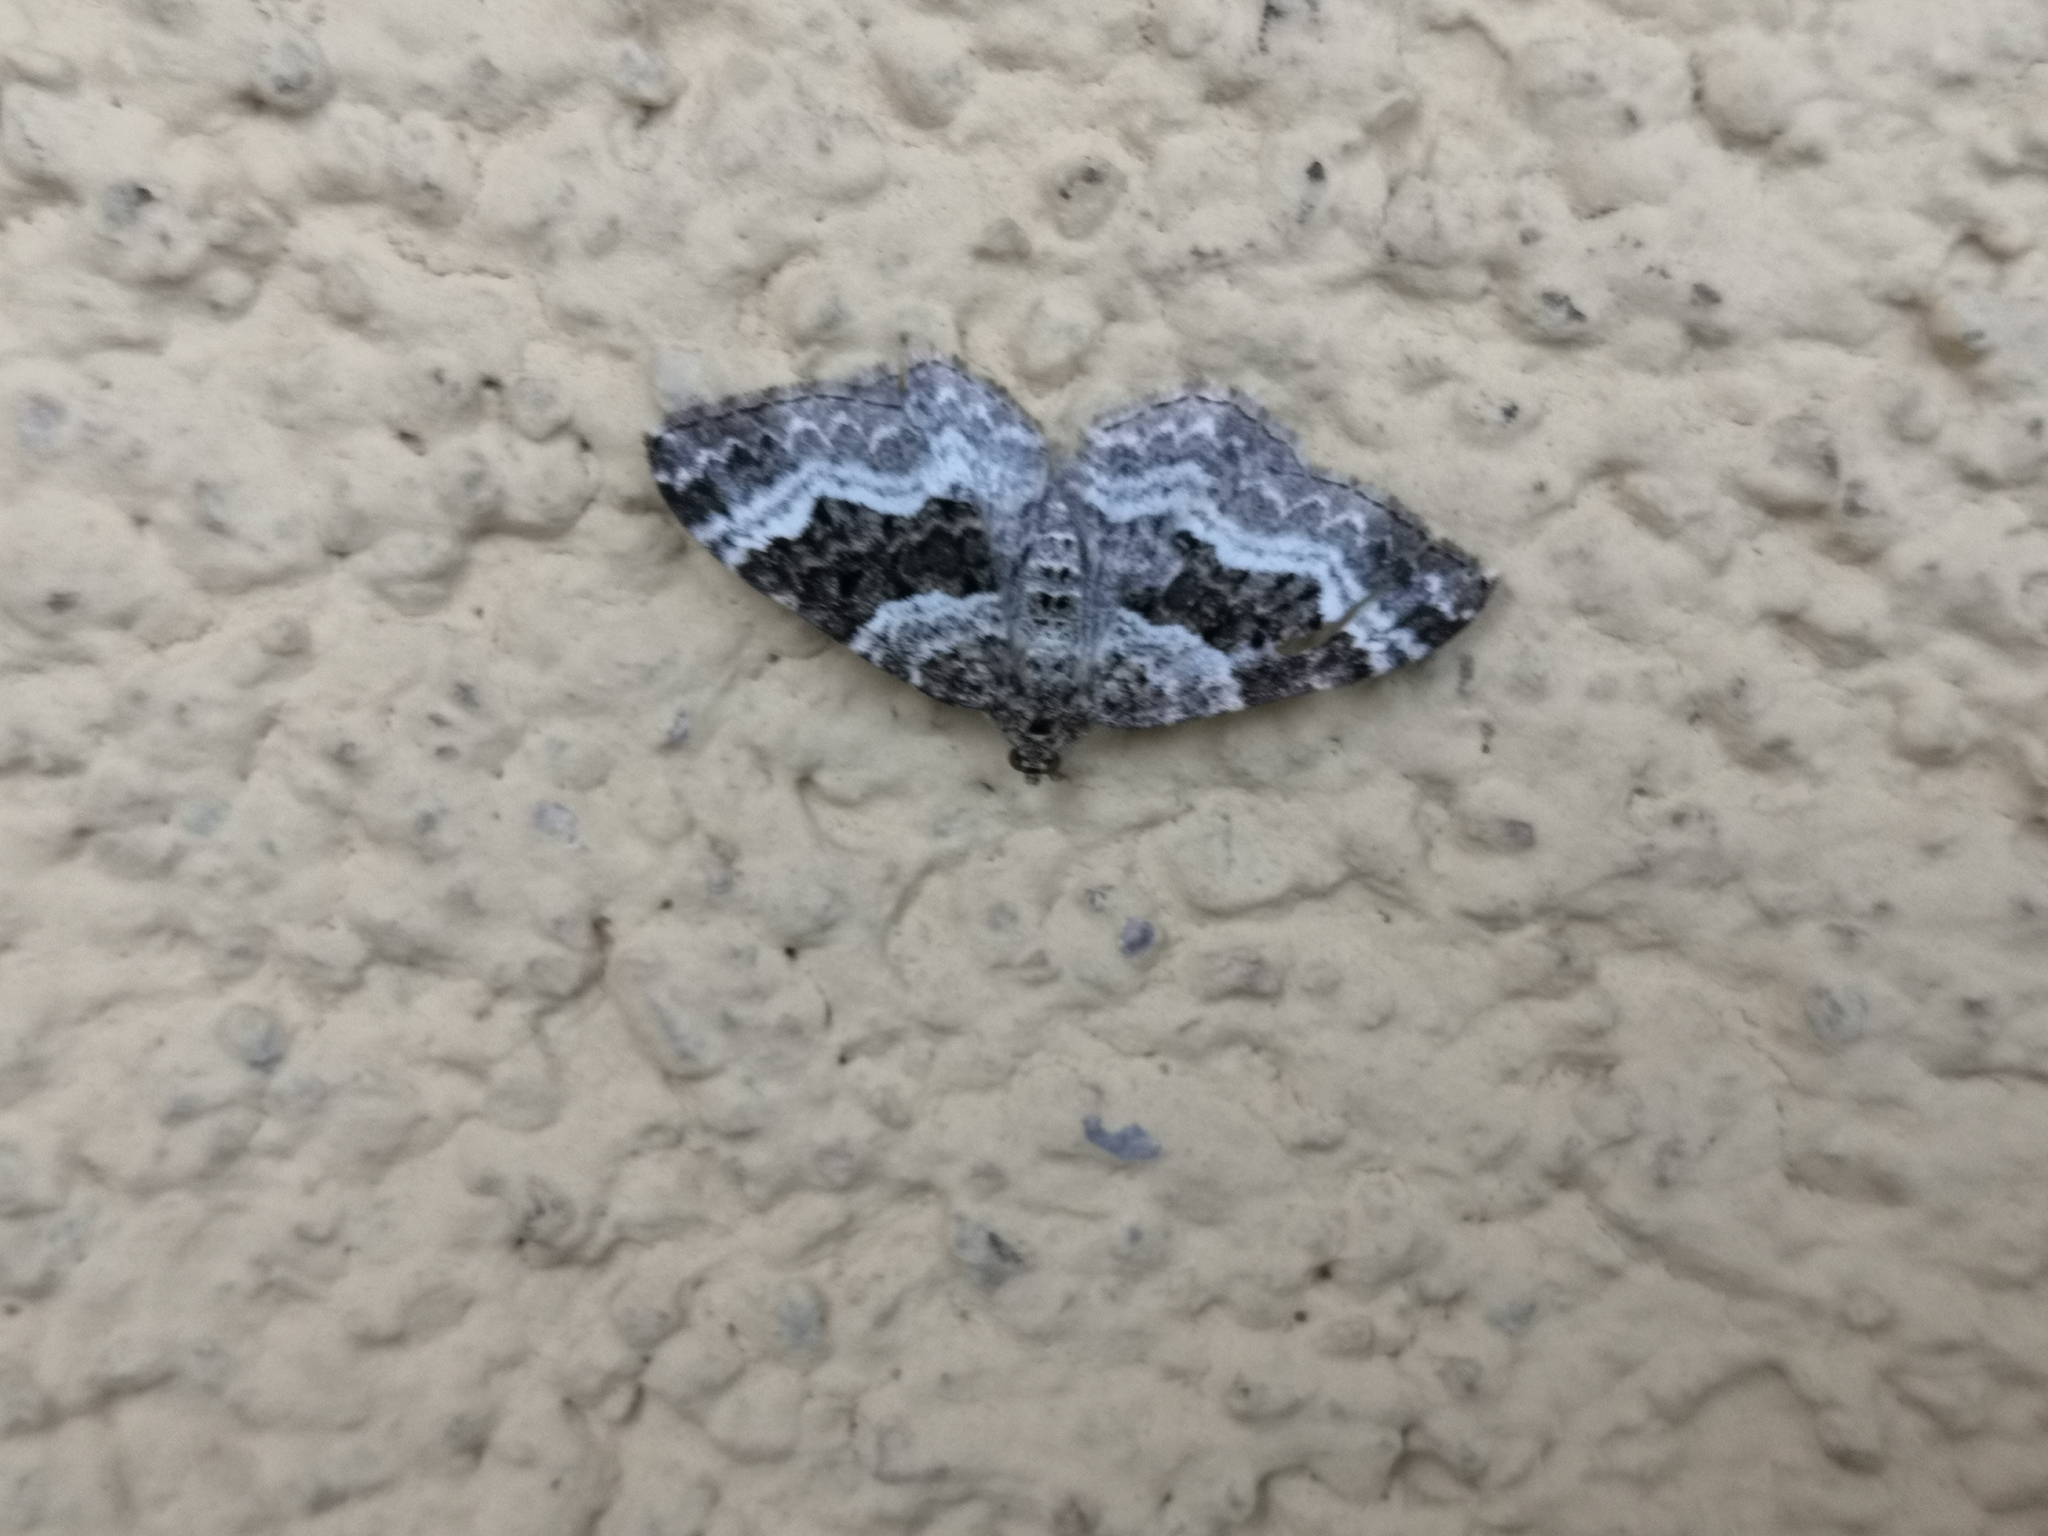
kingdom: Animalia
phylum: Arthropoda
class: Insecta
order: Lepidoptera
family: Geometridae
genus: Epirrhoe
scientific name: Epirrhoe alternata
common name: Common carpet
